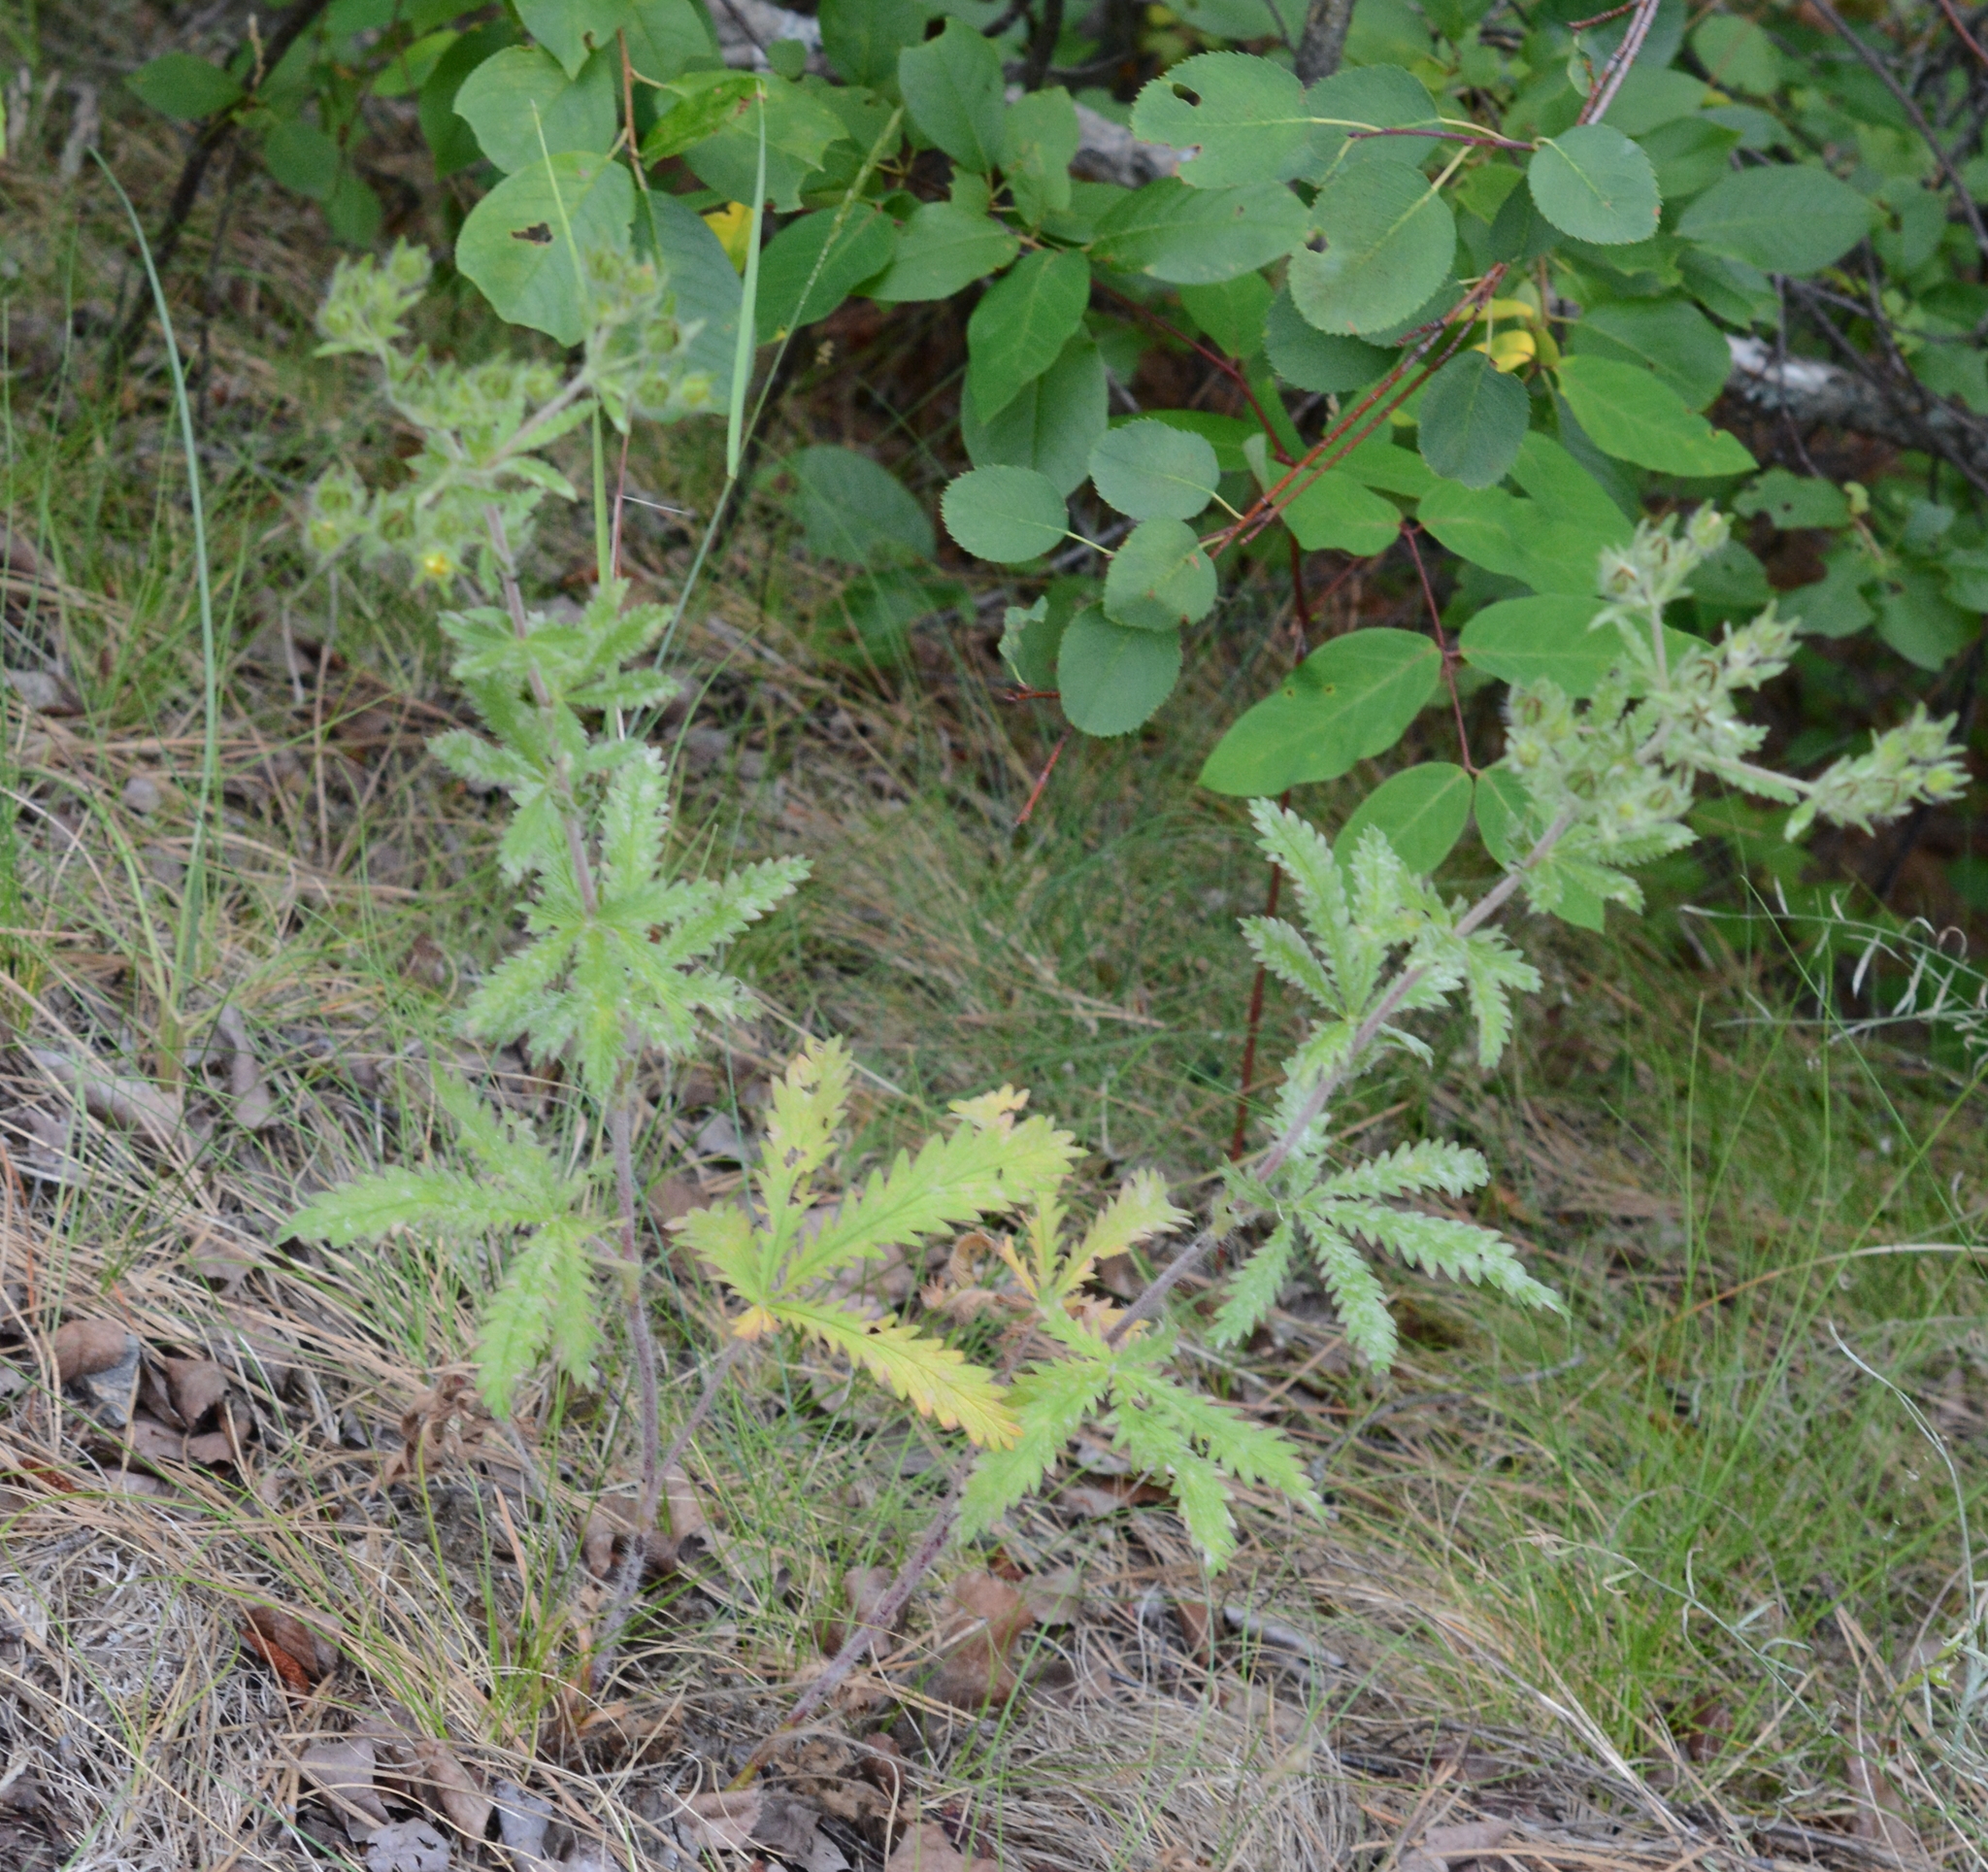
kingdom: Plantae
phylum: Tracheophyta
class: Magnoliopsida
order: Rosales
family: Rosaceae
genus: Potentilla
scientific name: Potentilla recta
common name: Sulphur cinquefoil
